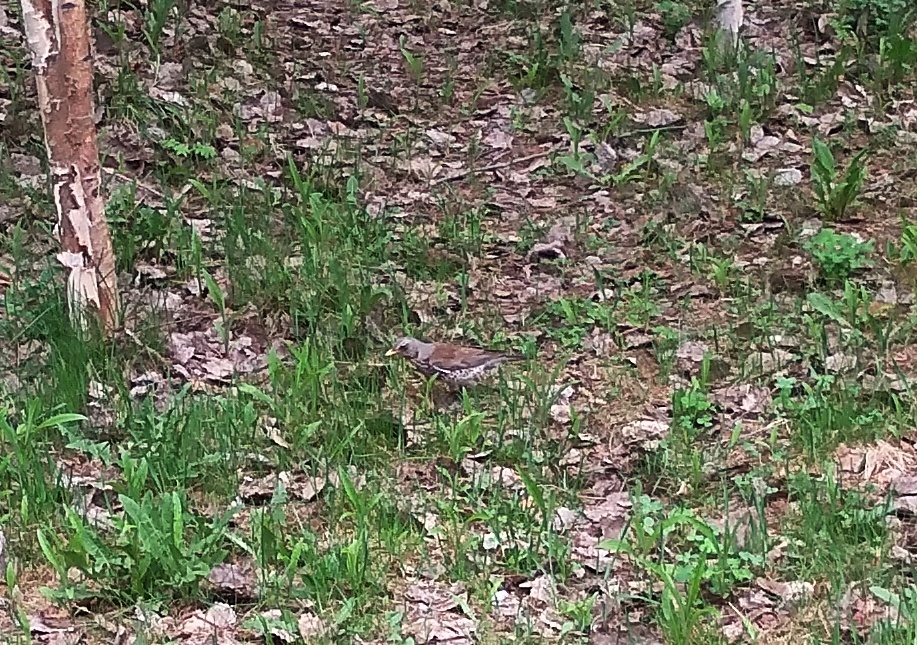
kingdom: Animalia
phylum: Chordata
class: Aves
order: Passeriformes
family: Turdidae
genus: Turdus
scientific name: Turdus pilaris
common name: Fieldfare
